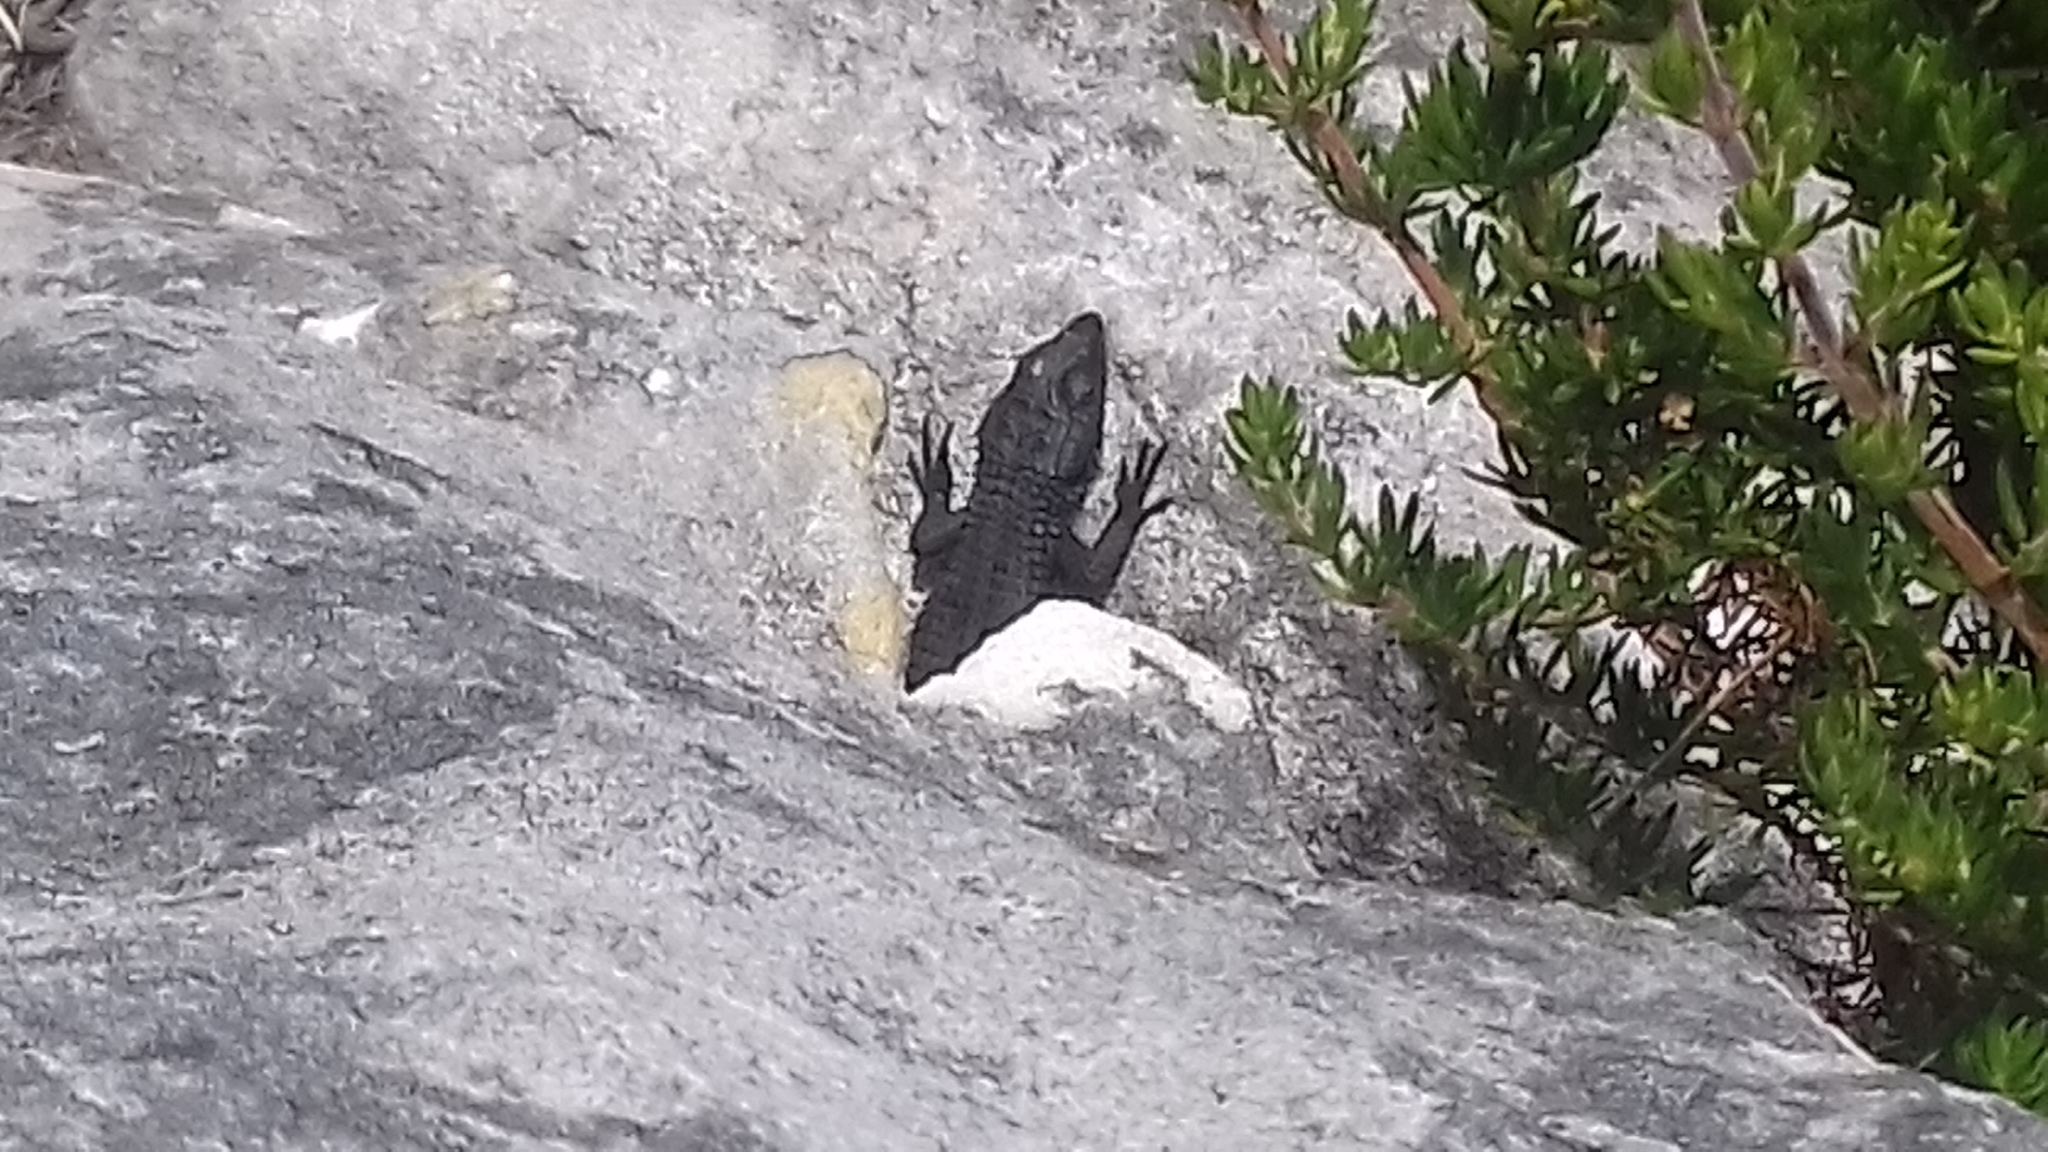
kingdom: Animalia
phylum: Chordata
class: Squamata
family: Cordylidae
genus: Cordylus
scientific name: Cordylus niger
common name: Black girdled lizard
